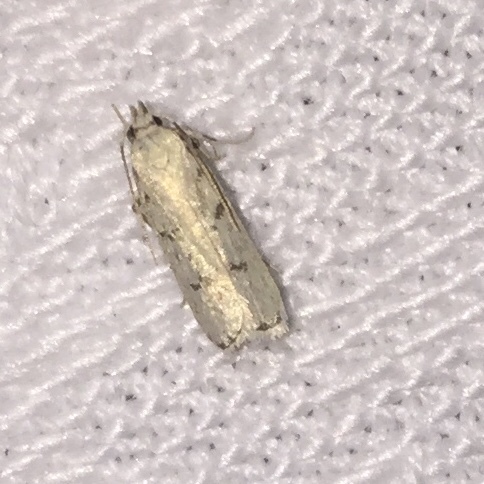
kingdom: Animalia
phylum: Arthropoda
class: Insecta
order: Lepidoptera
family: Autostichidae
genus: Glyphidocera
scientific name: Glyphidocera lactiflosella
